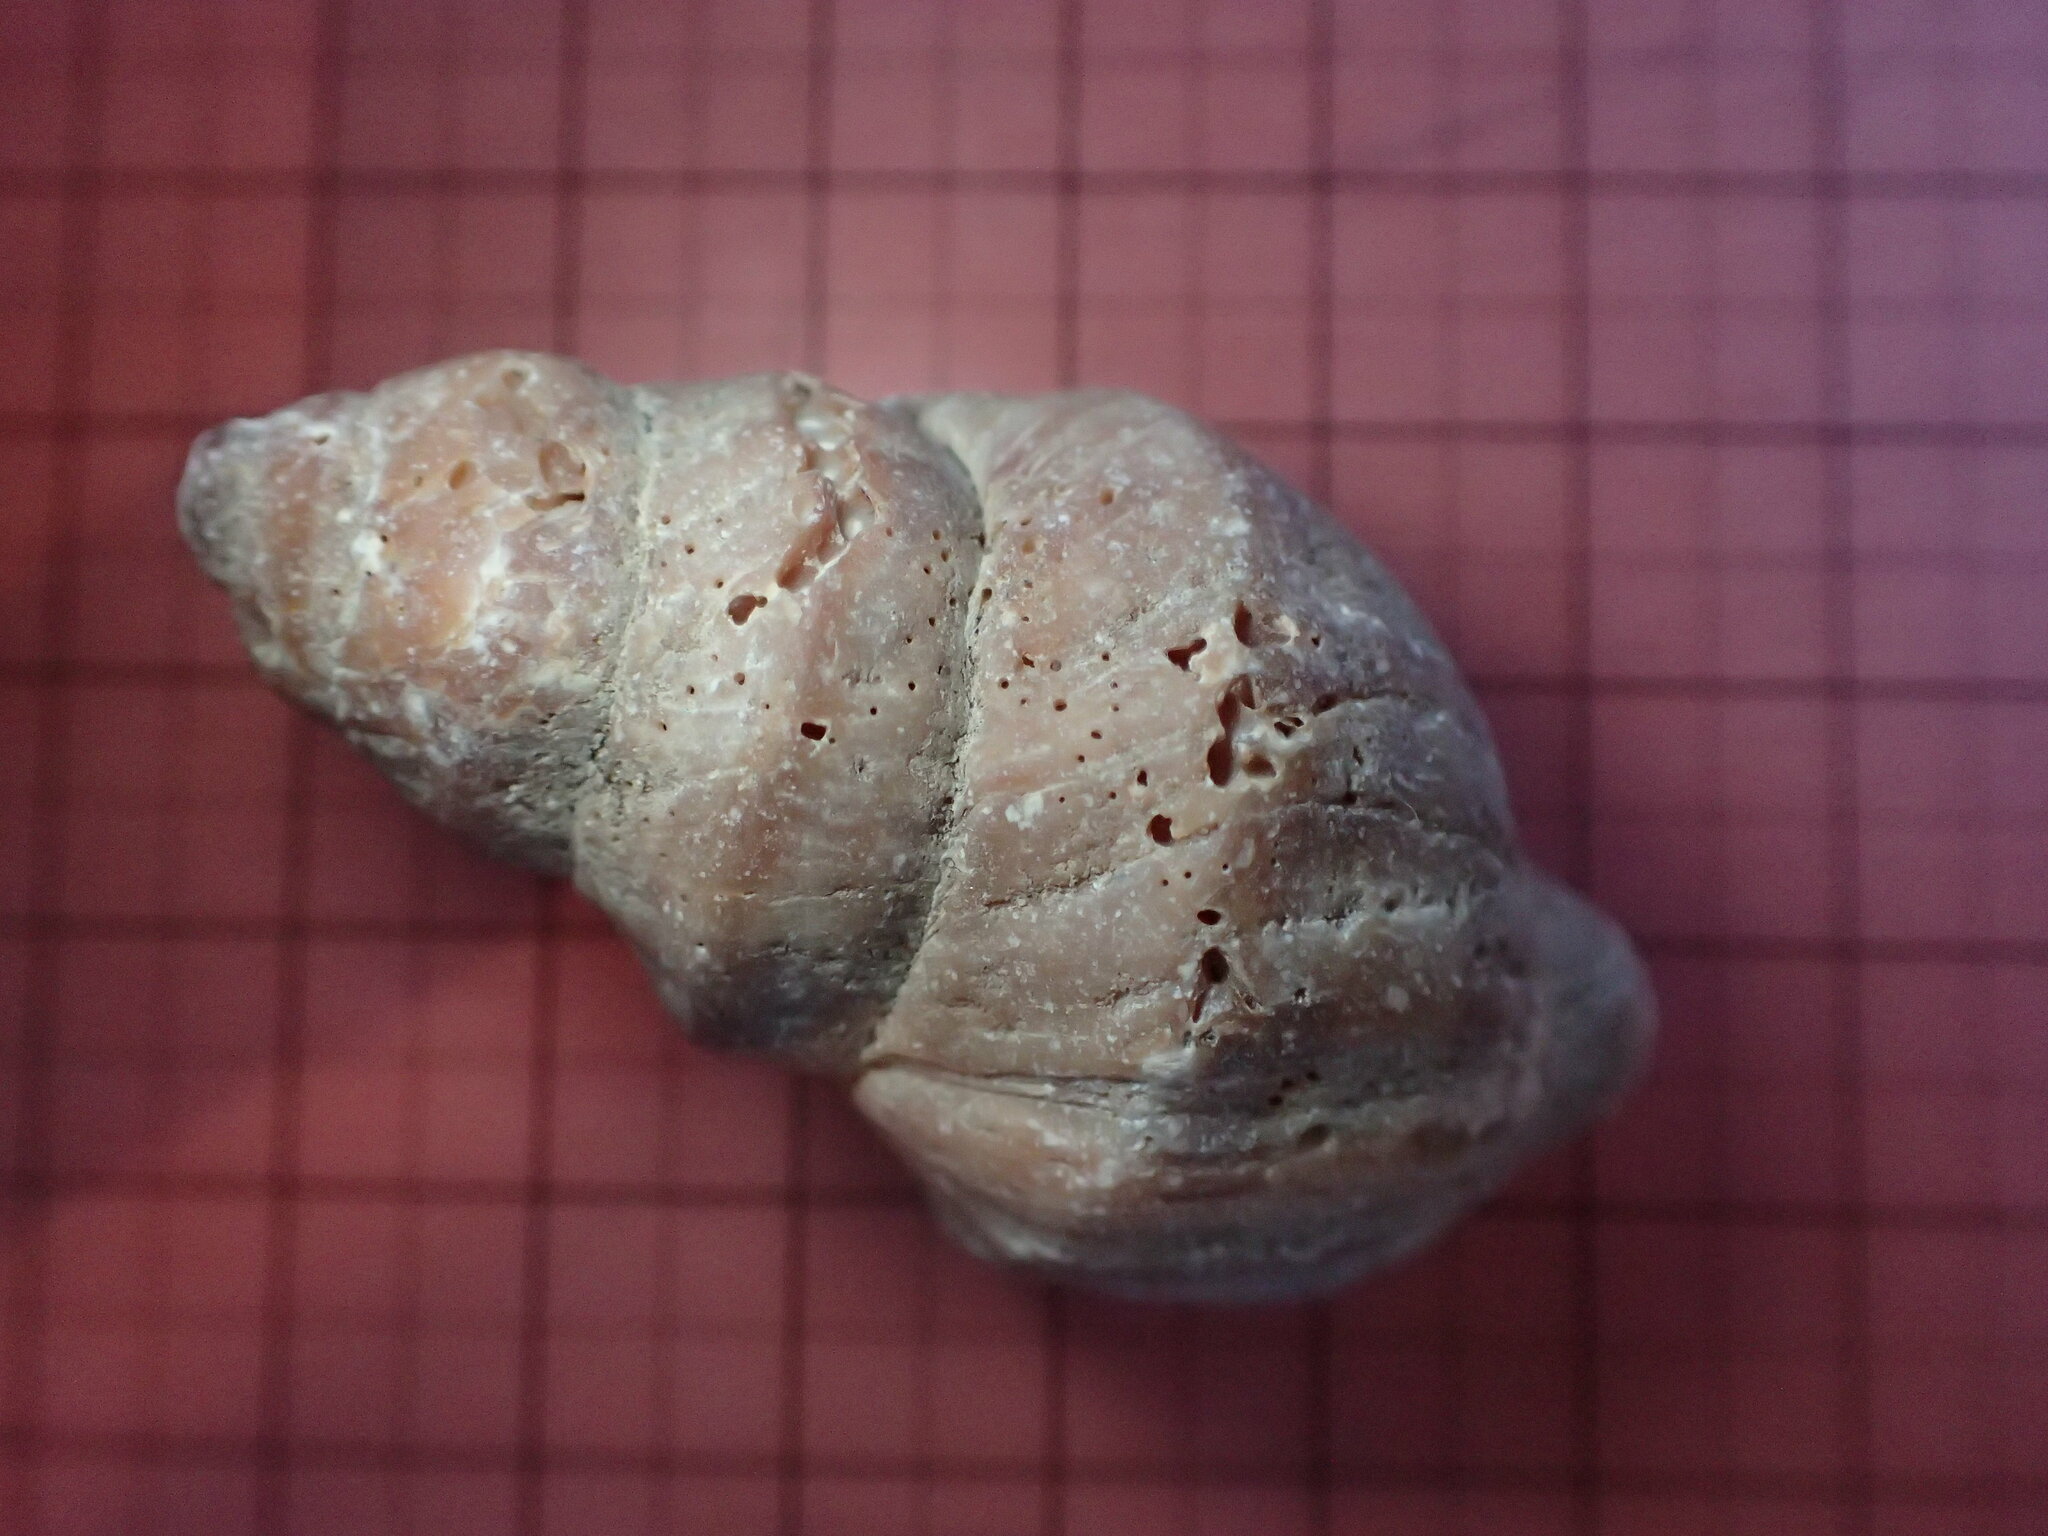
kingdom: Animalia
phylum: Mollusca
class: Gastropoda
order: Neogastropoda
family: Muricidae
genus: Nucella
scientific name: Nucella lamellosa
